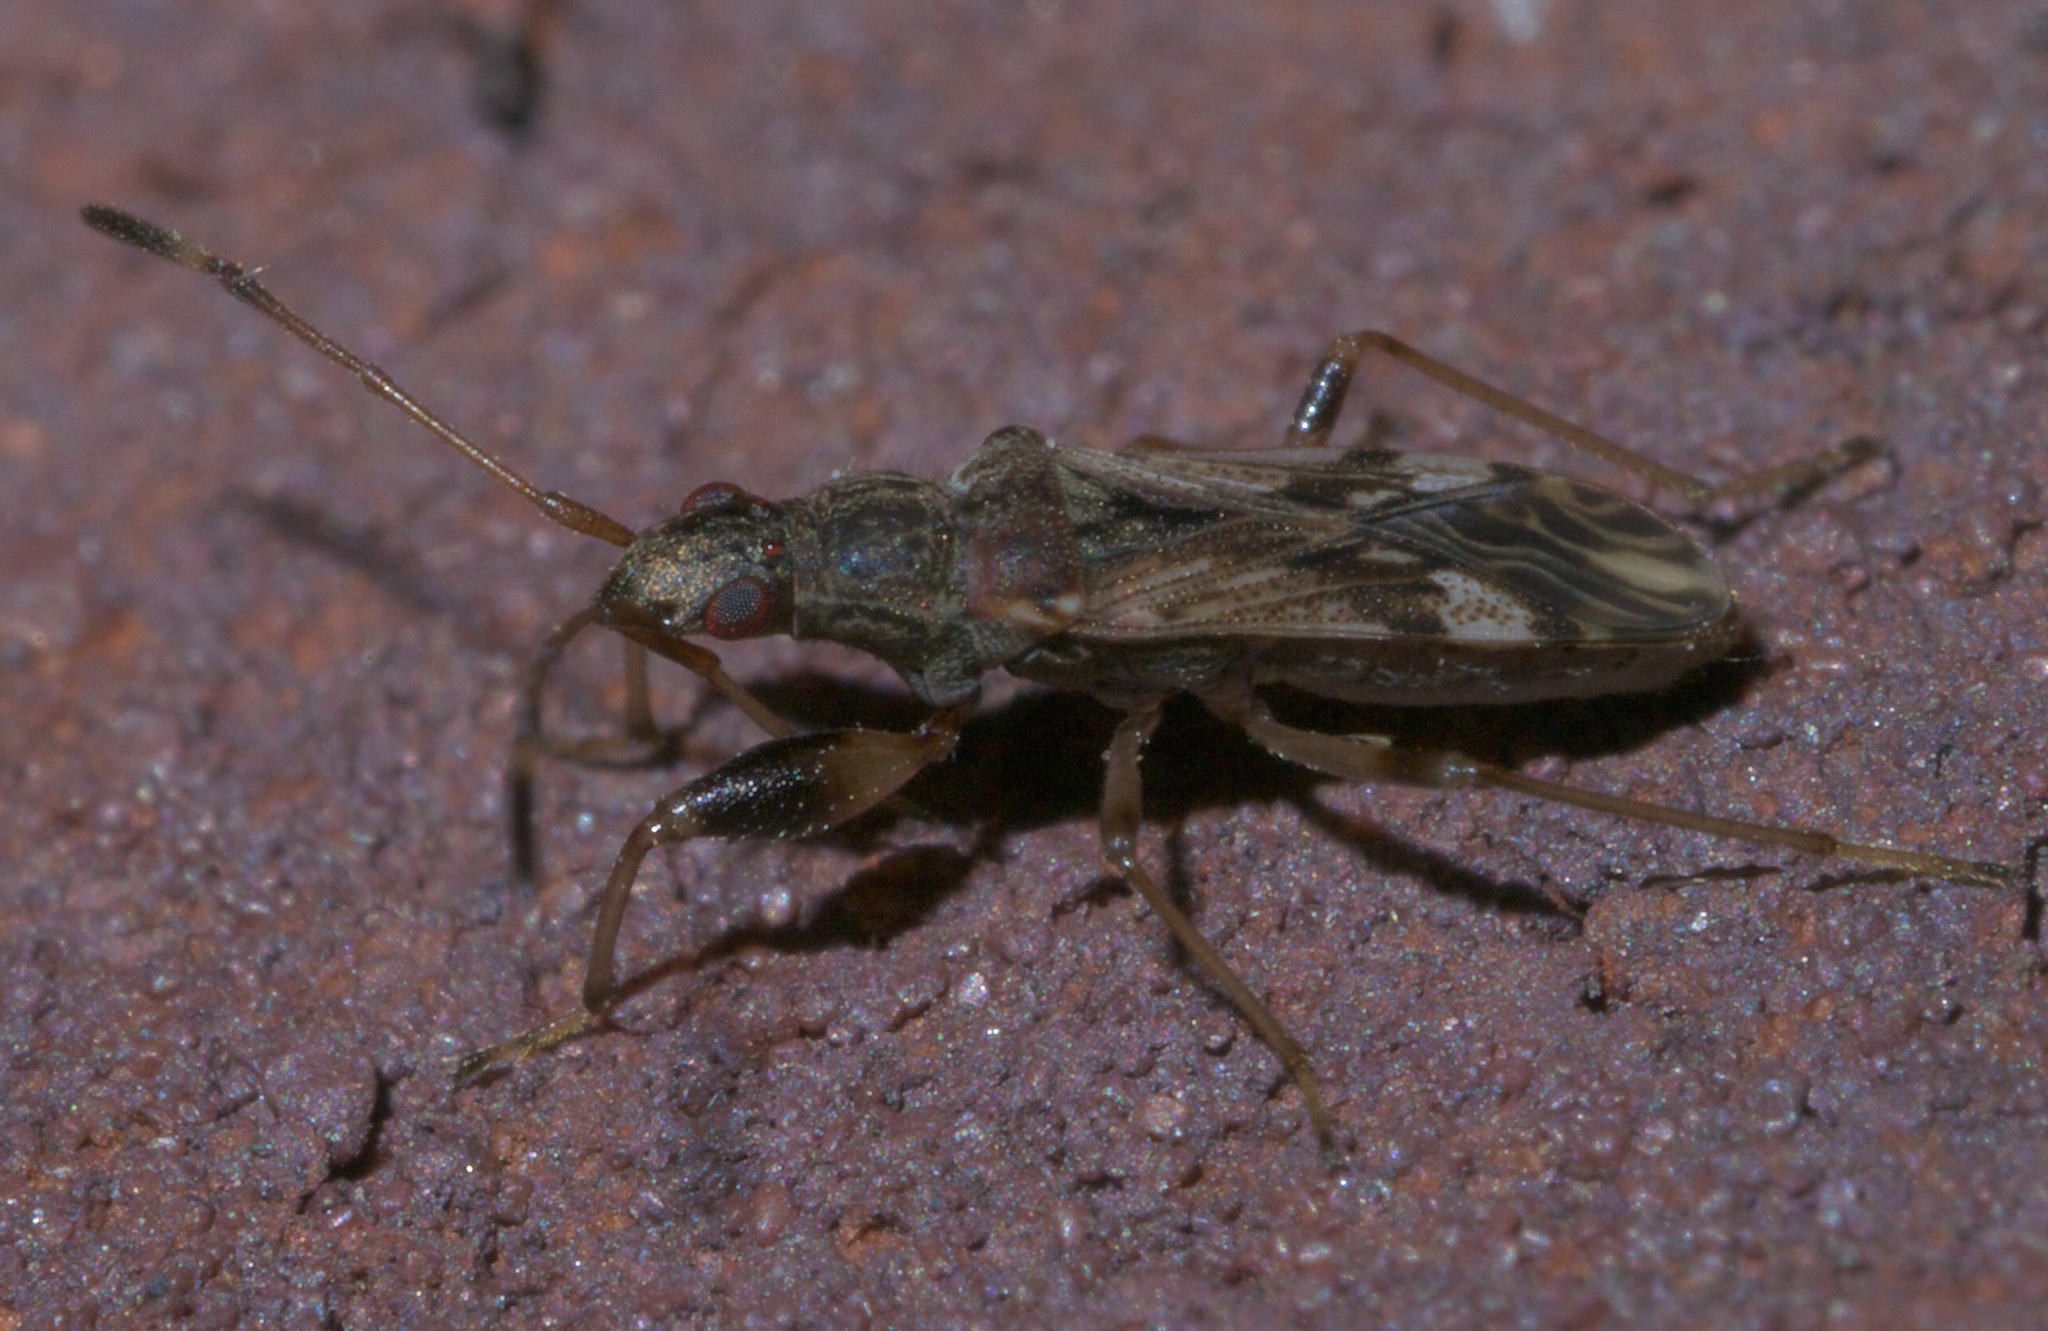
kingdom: Animalia
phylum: Arthropoda
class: Insecta
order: Hemiptera
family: Rhyparochromidae
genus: Neopamera
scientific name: Neopamera albocincta
